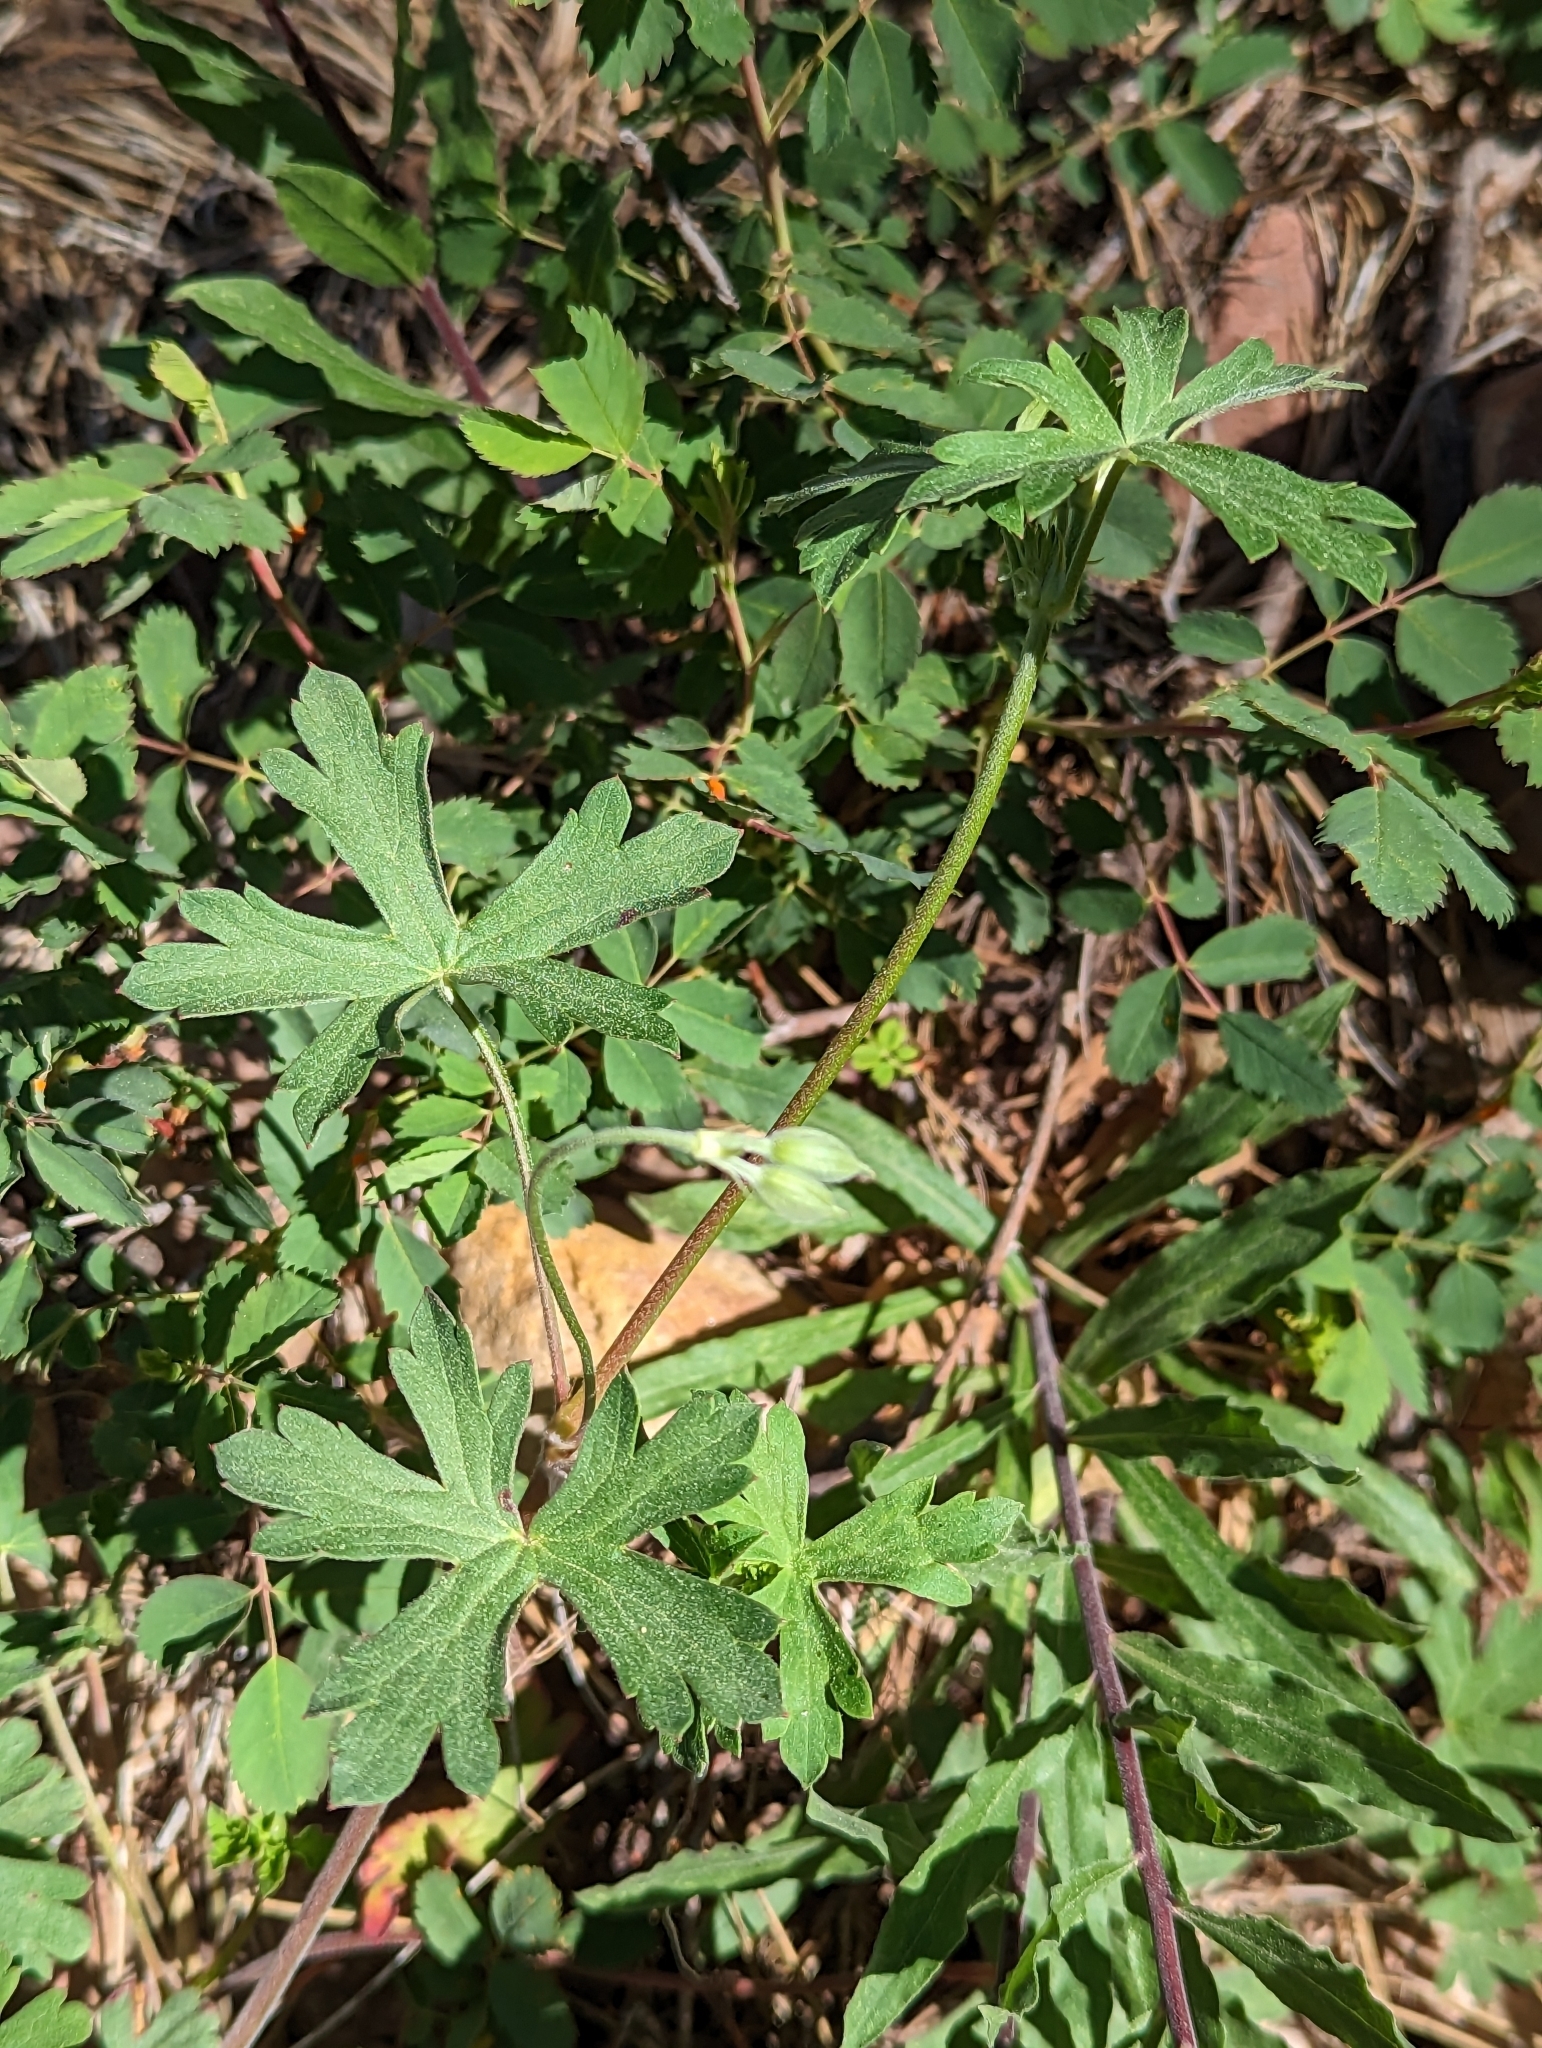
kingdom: Plantae
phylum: Tracheophyta
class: Magnoliopsida
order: Geraniales
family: Geraniaceae
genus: Geranium
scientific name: Geranium caespitosum
